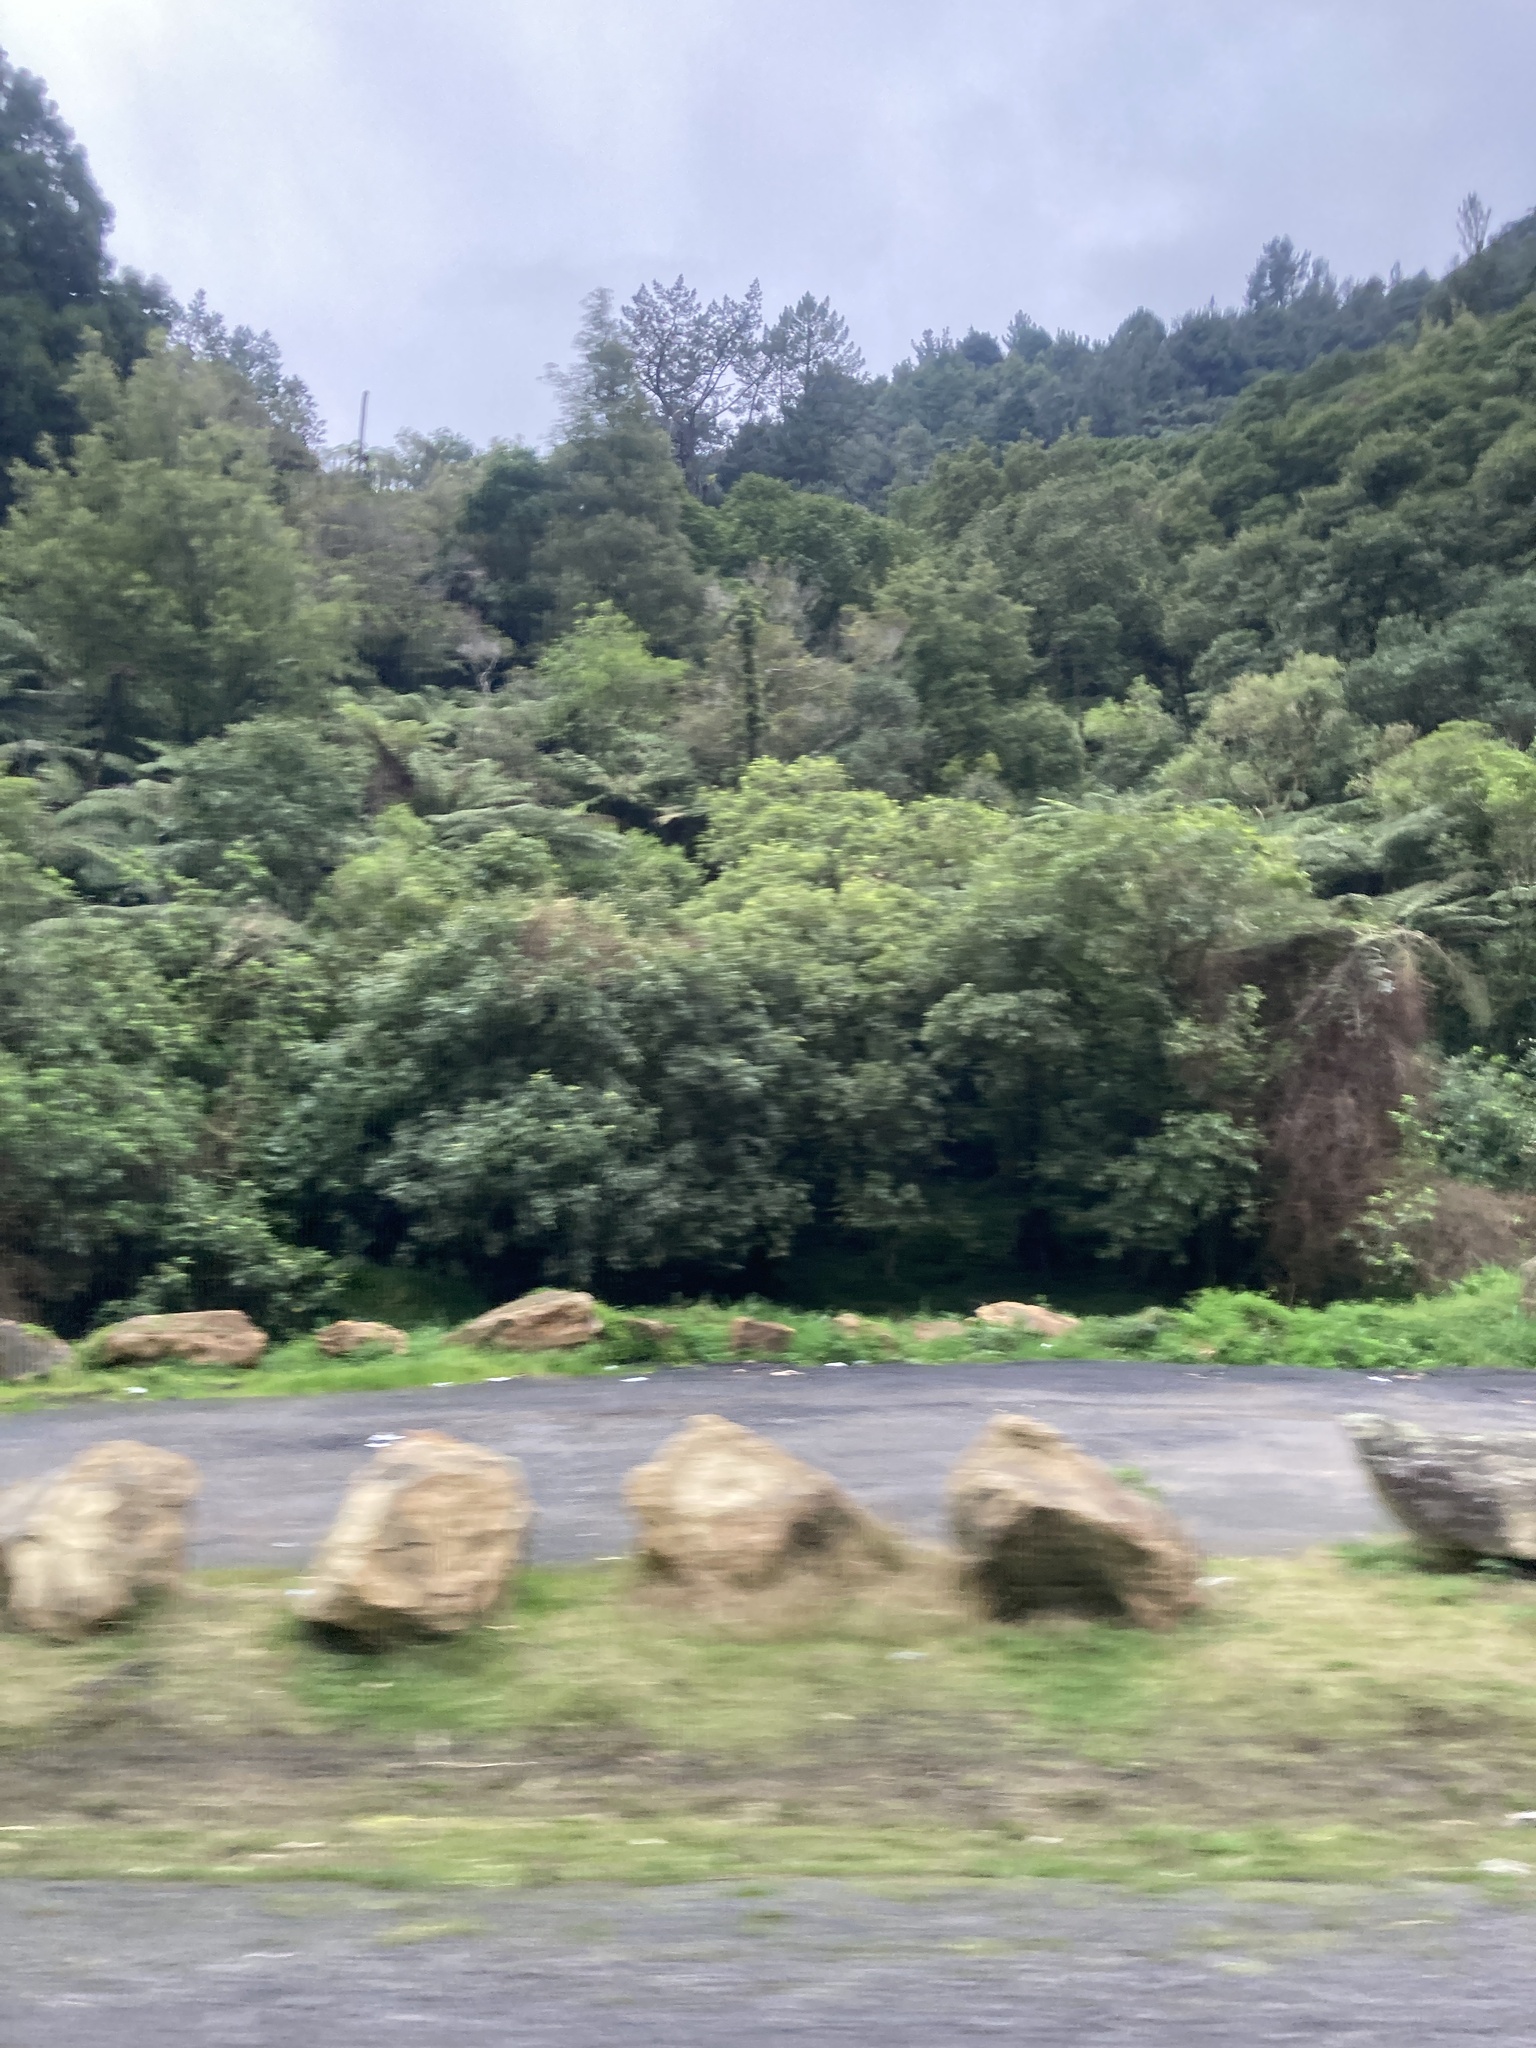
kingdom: Plantae
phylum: Tracheophyta
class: Pinopsida
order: Pinales
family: Podocarpaceae
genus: Dacrycarpus
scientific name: Dacrycarpus dacrydioides
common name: White pine
